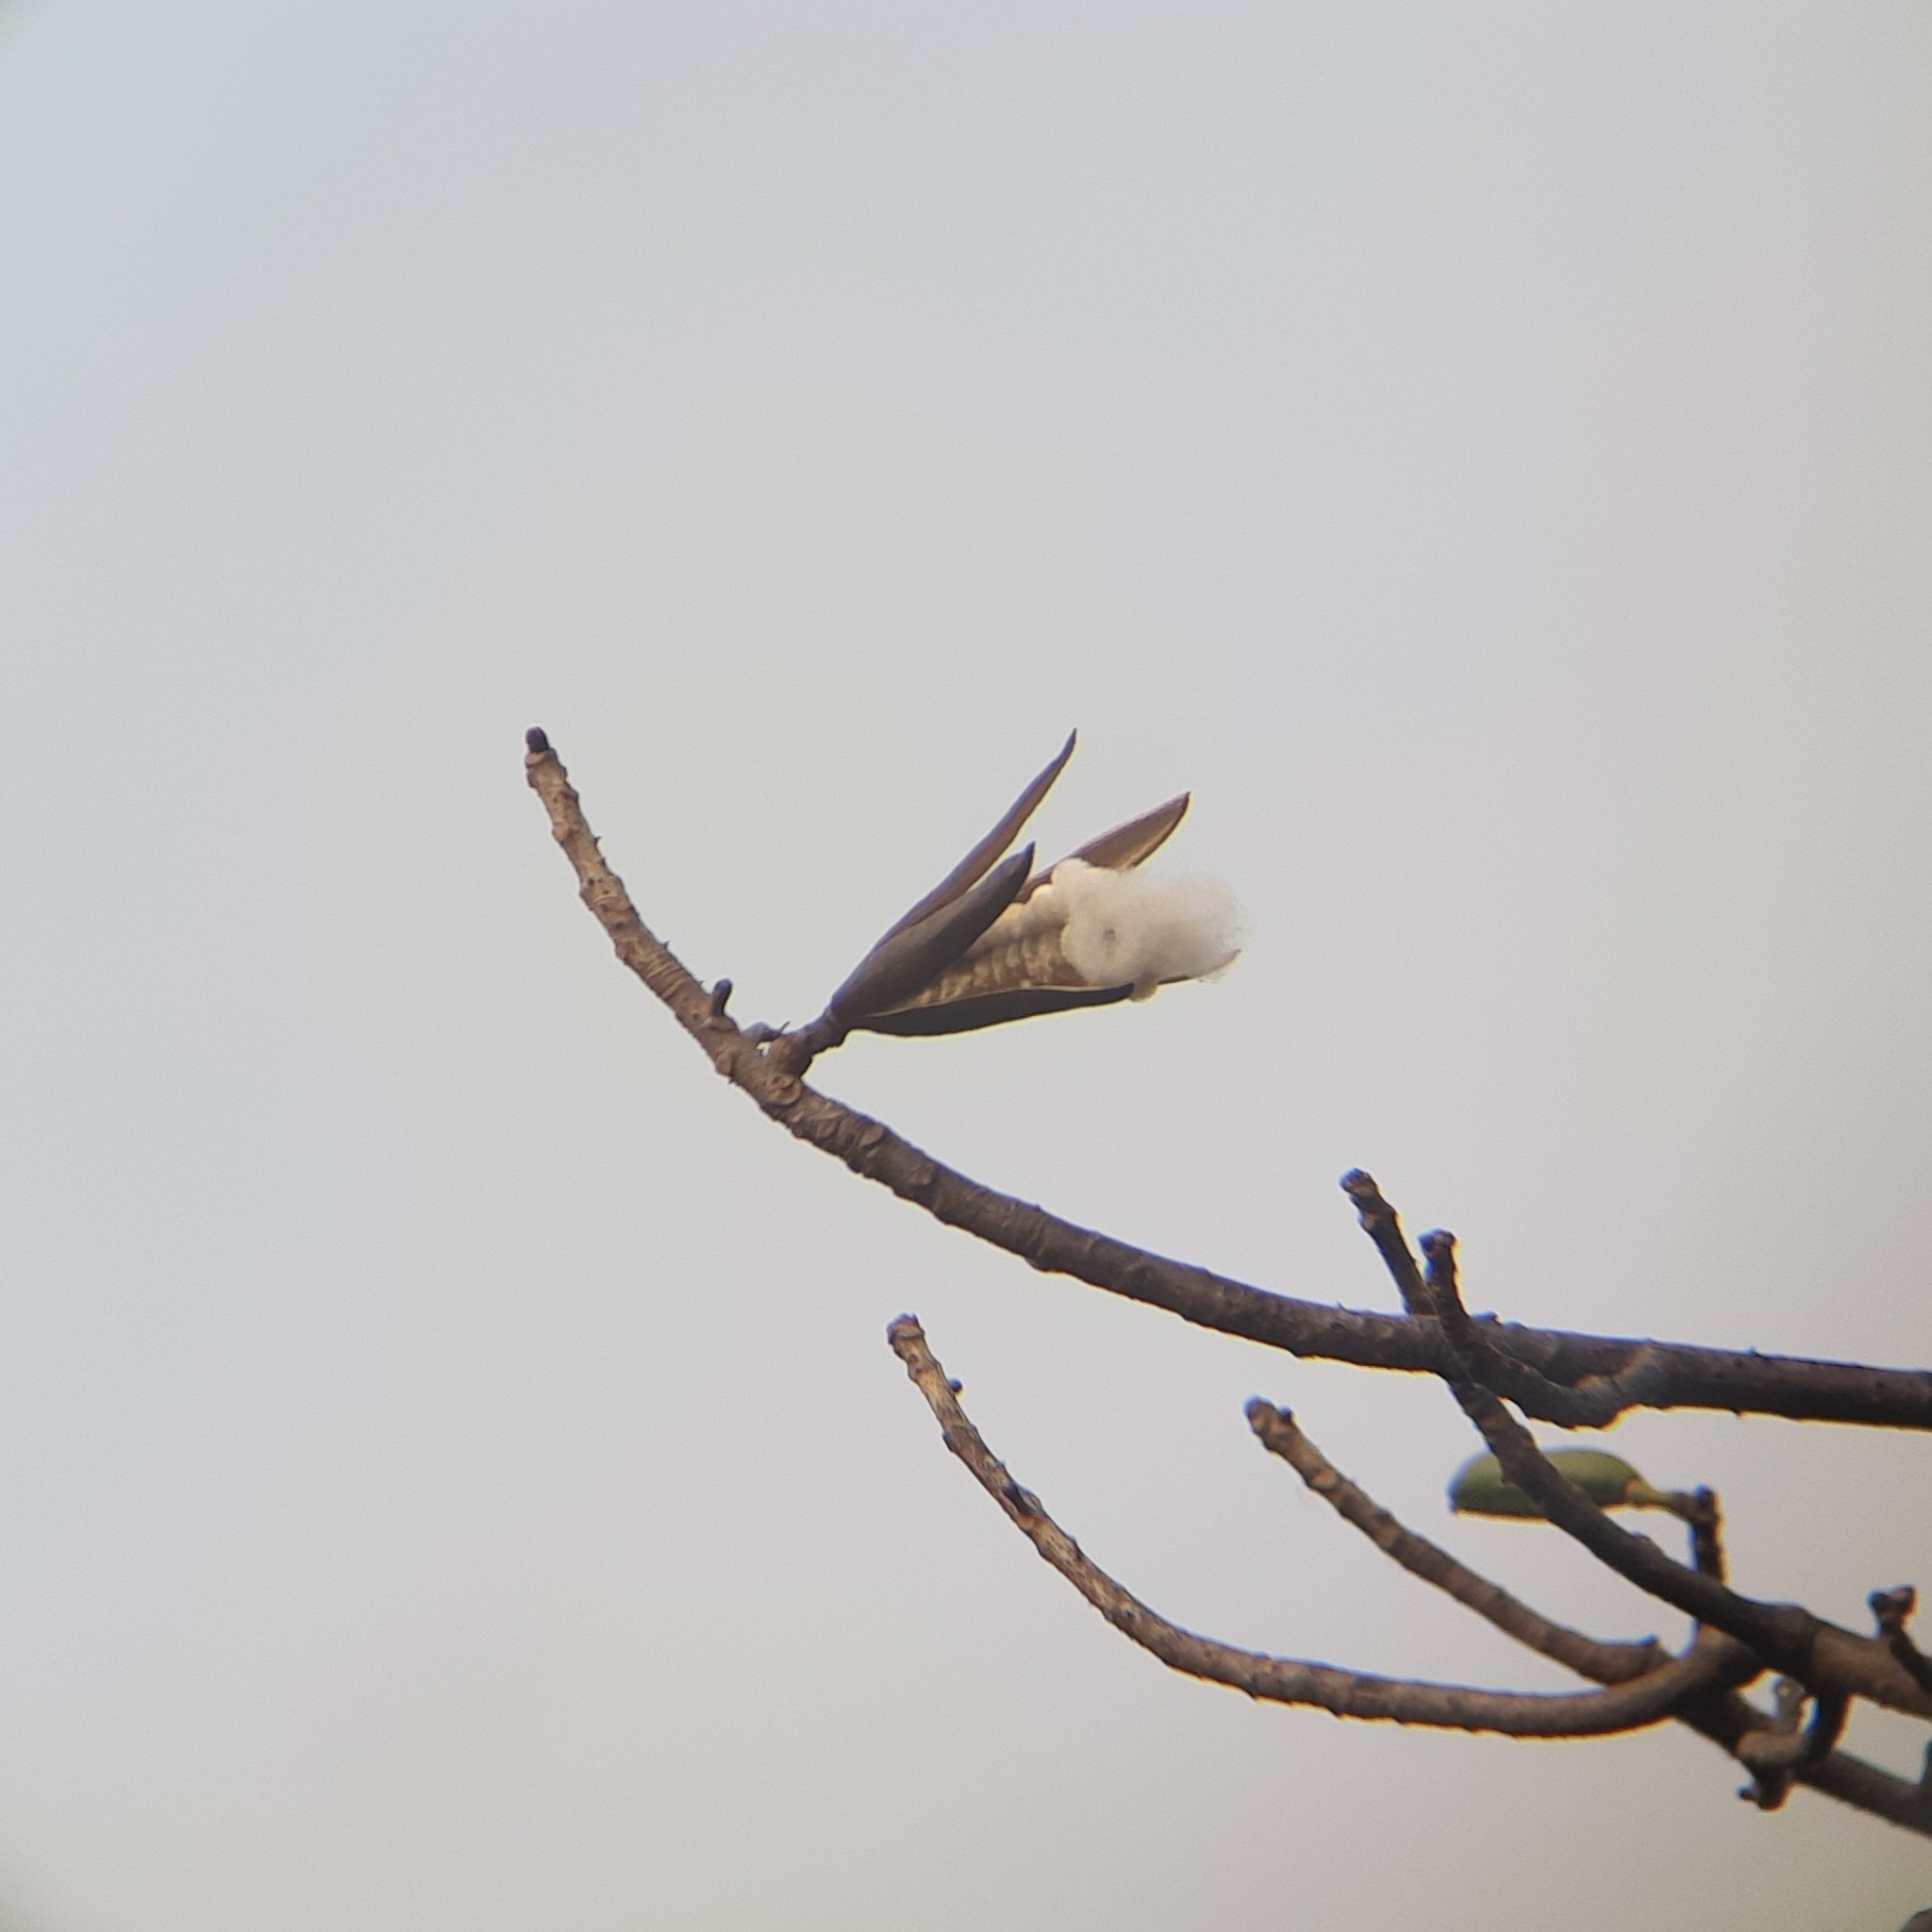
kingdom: Plantae
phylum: Tracheophyta
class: Magnoliopsida
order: Malvales
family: Malvaceae
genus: Bombax
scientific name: Bombax ceiba
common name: Northern-cottonwood
